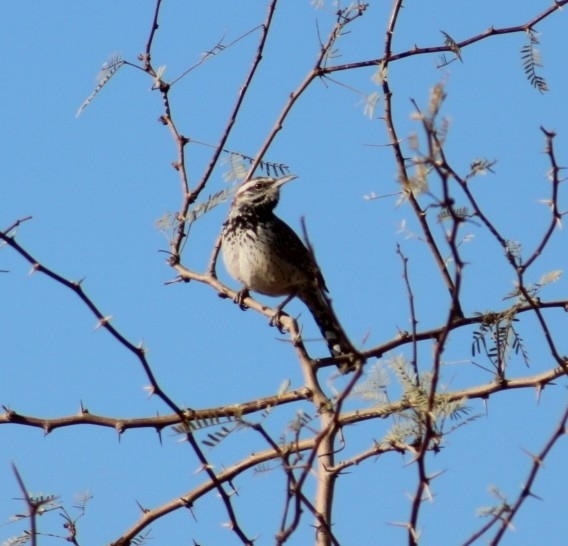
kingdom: Animalia
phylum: Chordata
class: Aves
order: Passeriformes
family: Troglodytidae
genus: Campylorhynchus
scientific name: Campylorhynchus brunneicapillus
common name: Cactus wren
